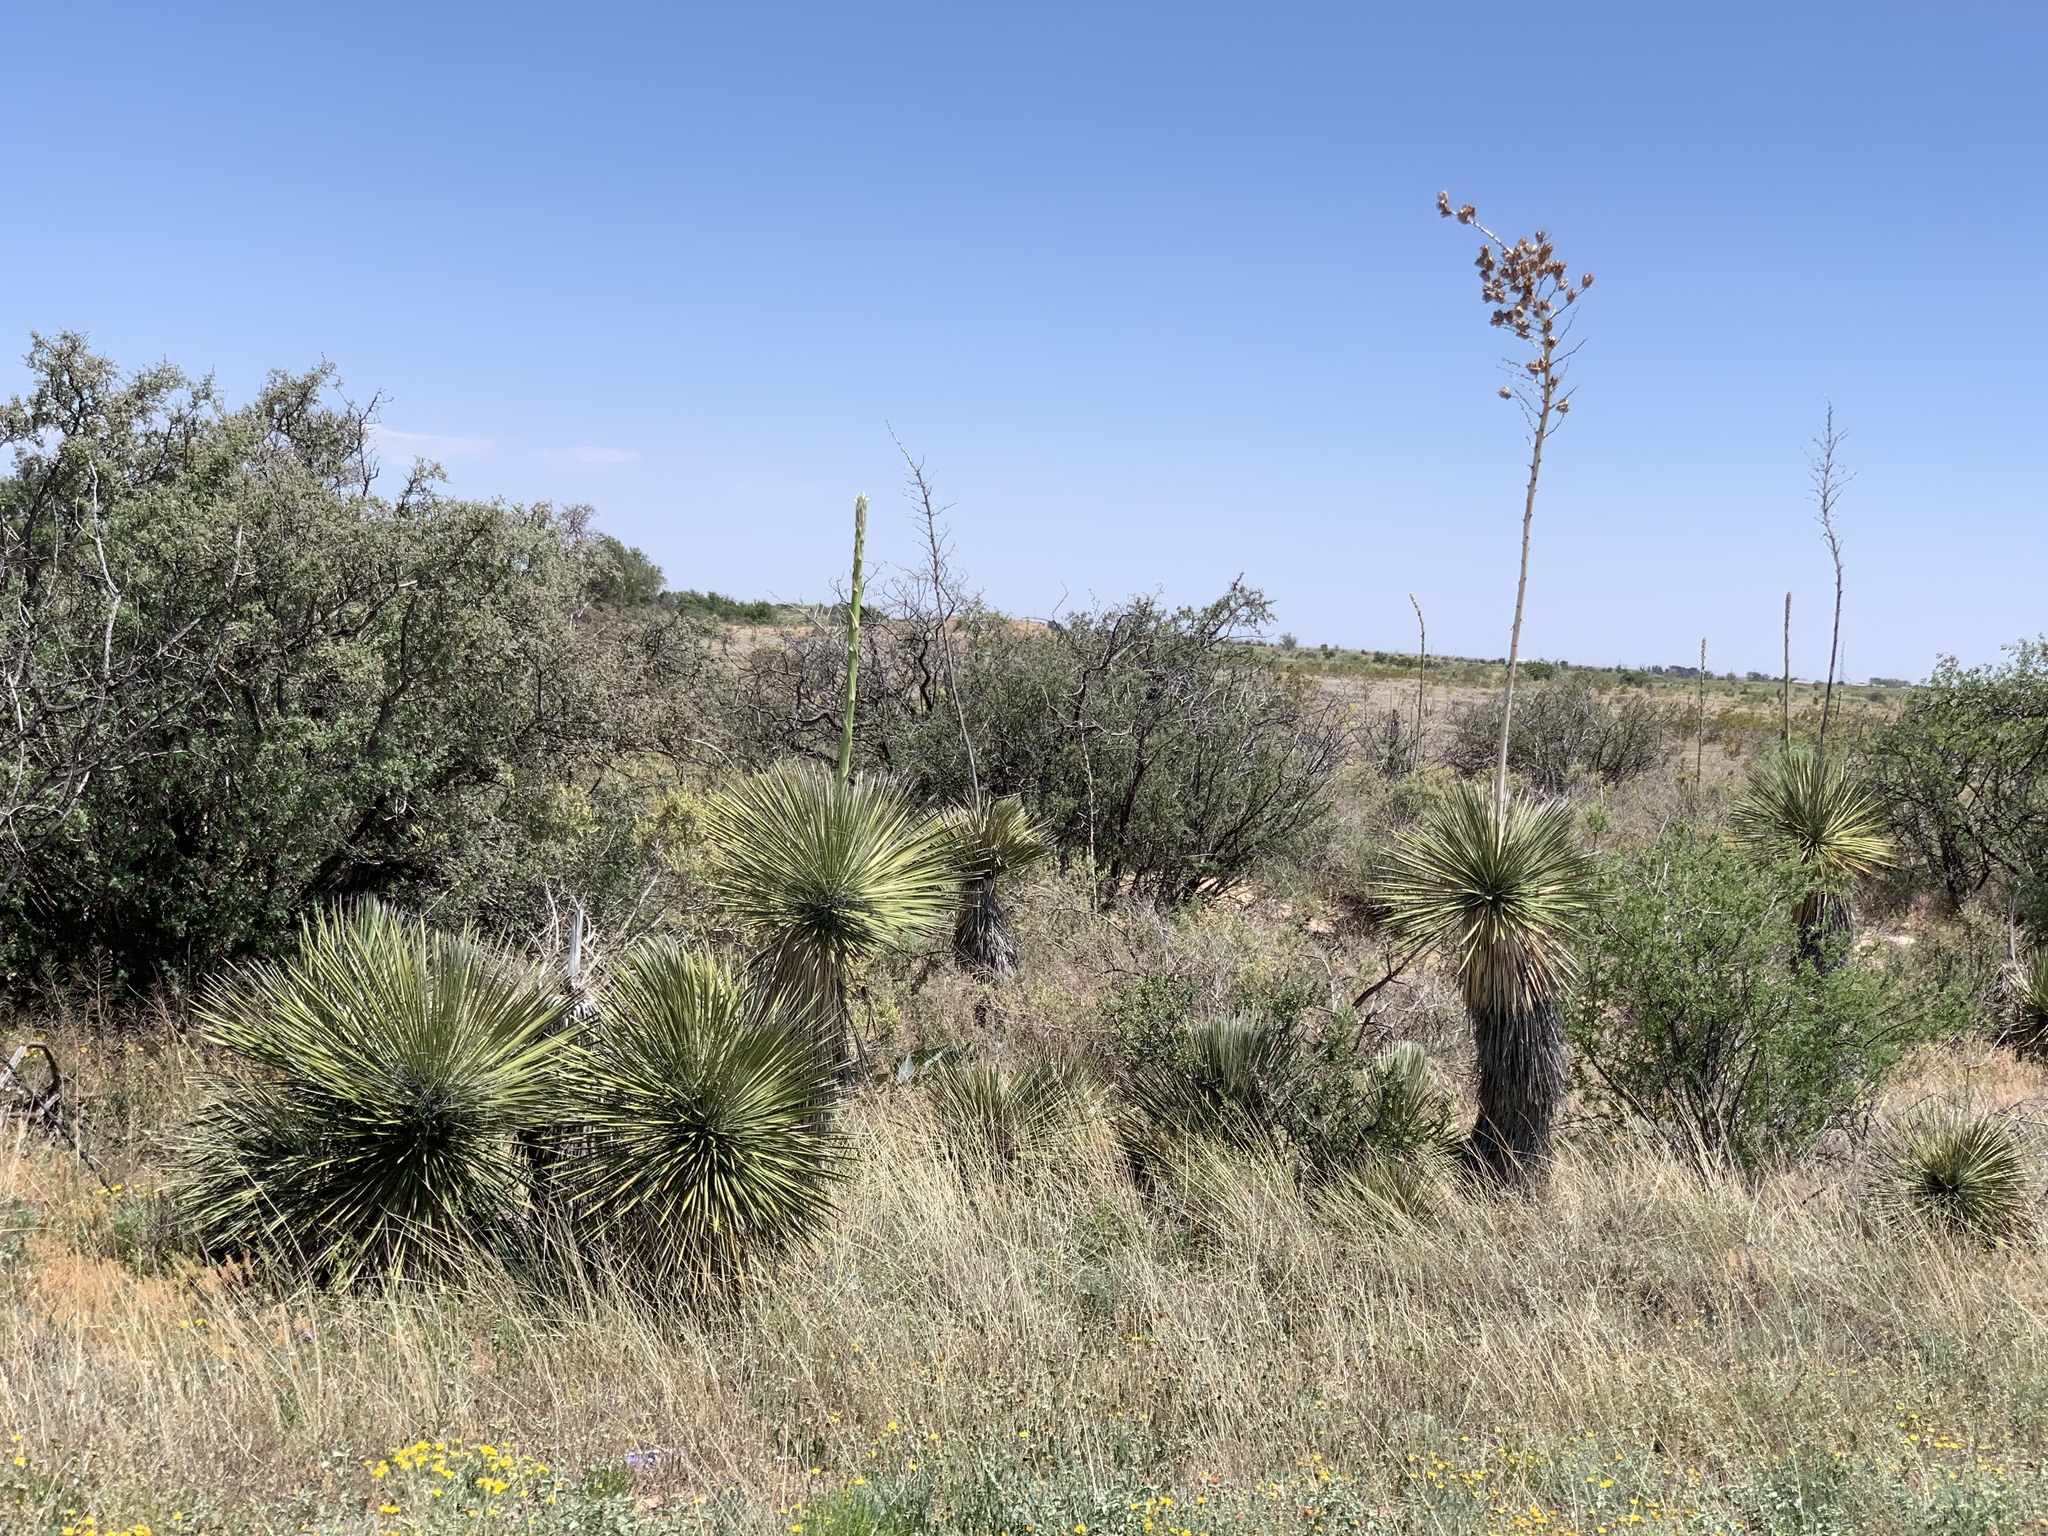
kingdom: Plantae
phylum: Tracheophyta
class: Liliopsida
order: Asparagales
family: Asparagaceae
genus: Yucca
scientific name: Yucca elata
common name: Palmella
